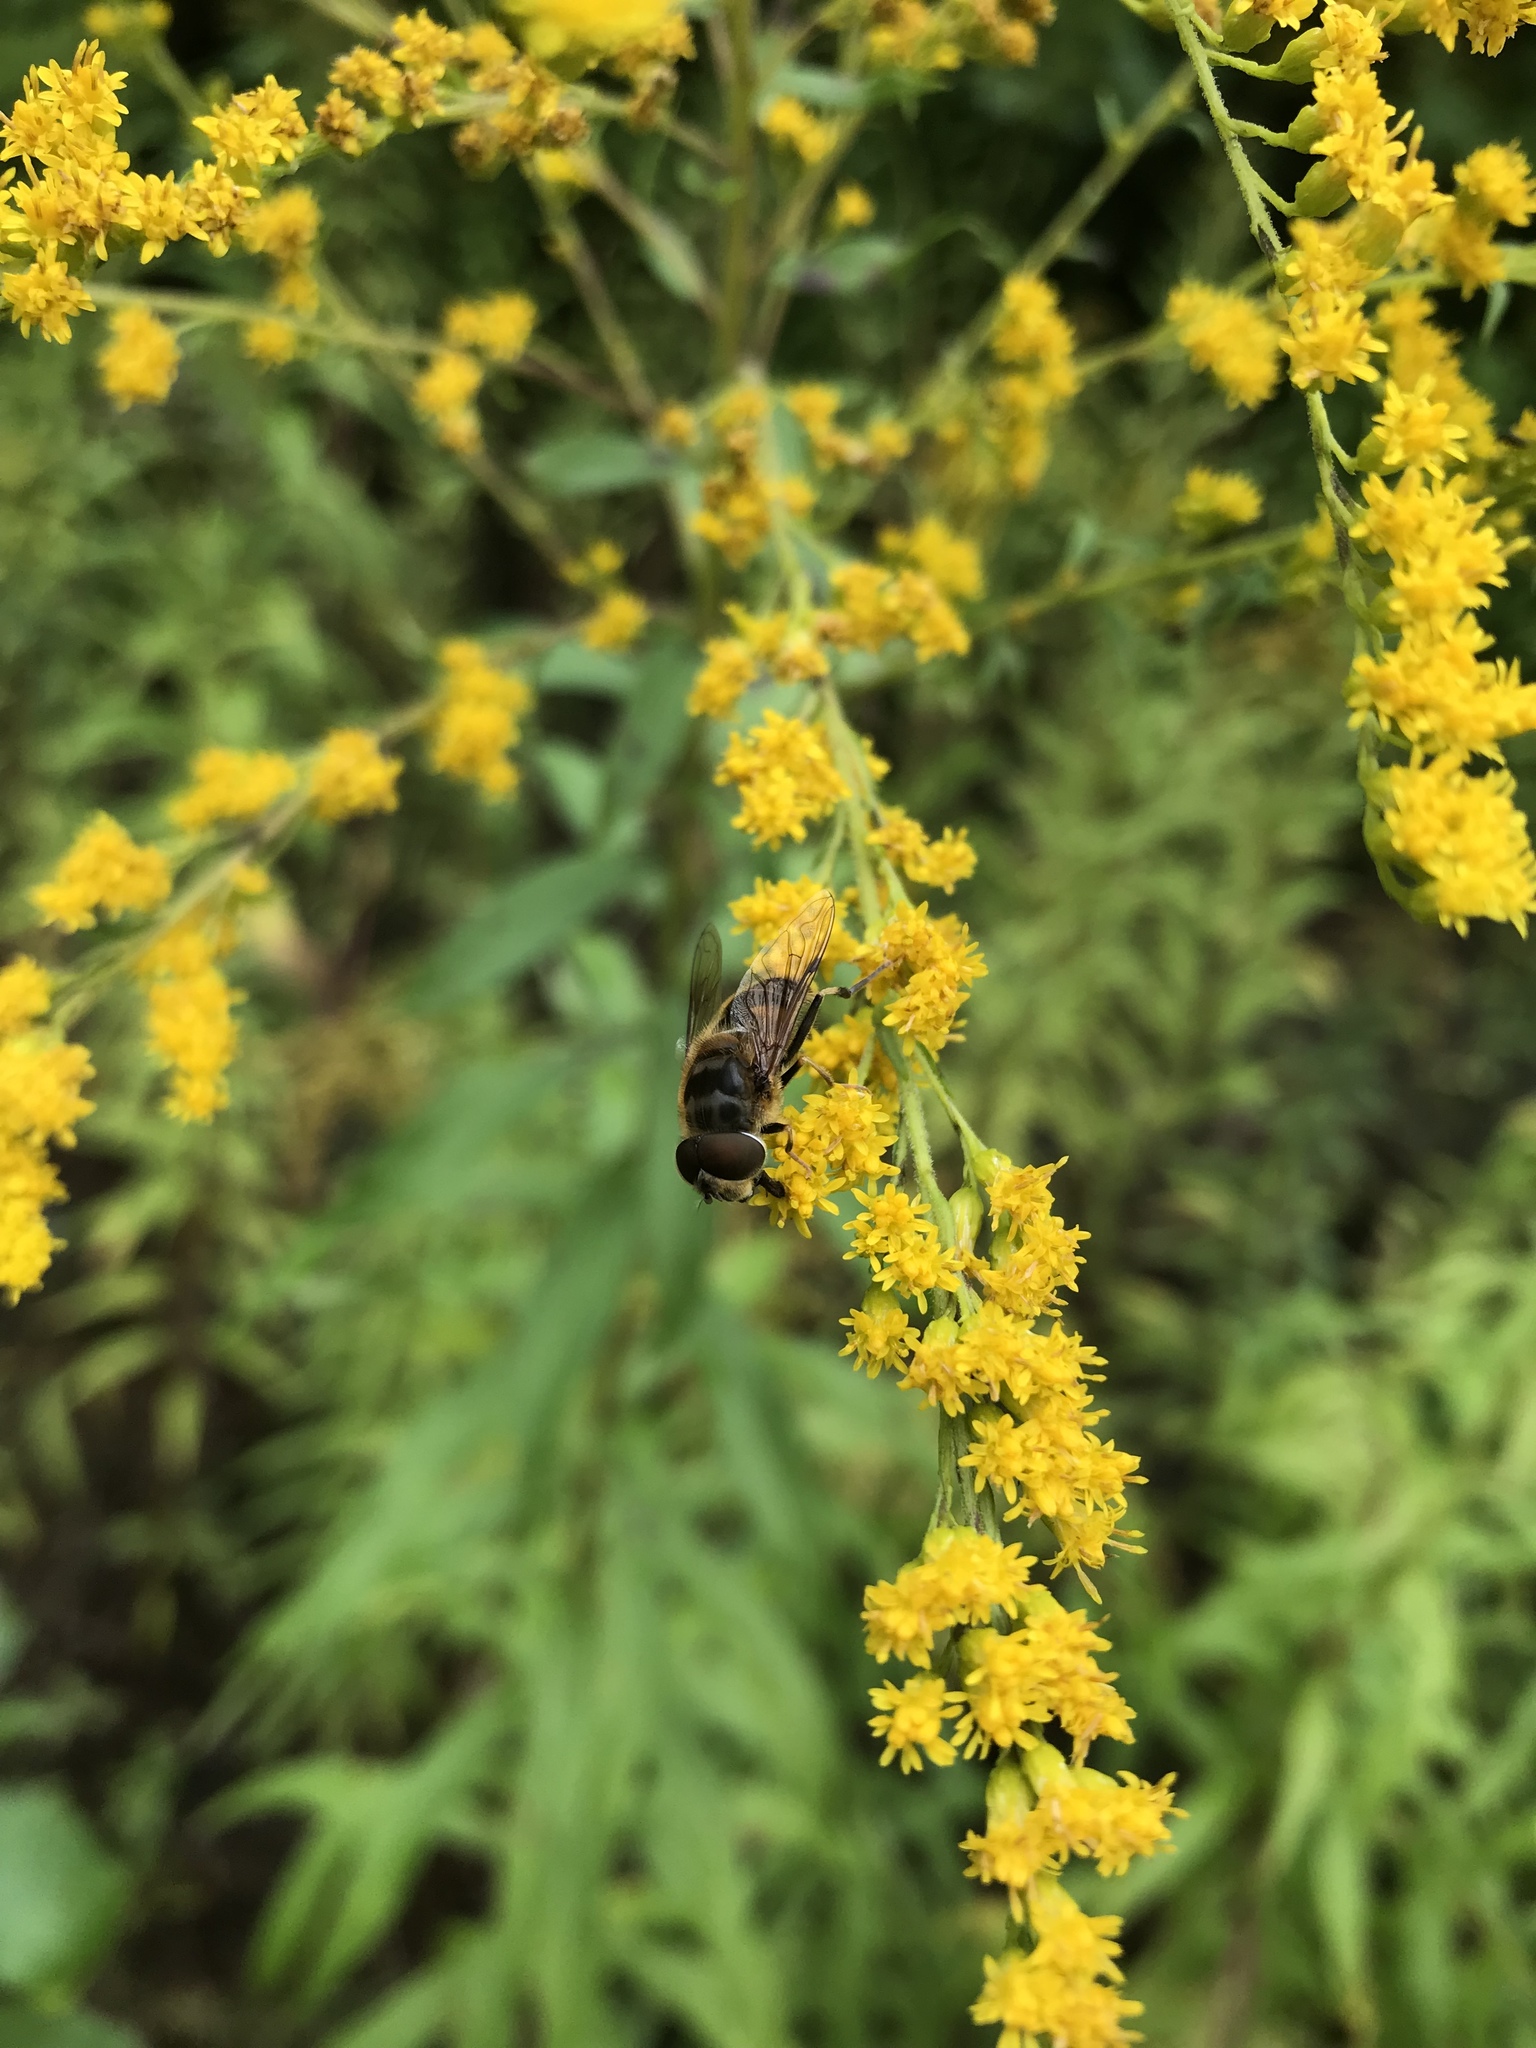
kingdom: Animalia
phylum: Arthropoda
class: Insecta
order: Diptera
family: Syrphidae
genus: Eristalis
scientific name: Eristalis pertinax
